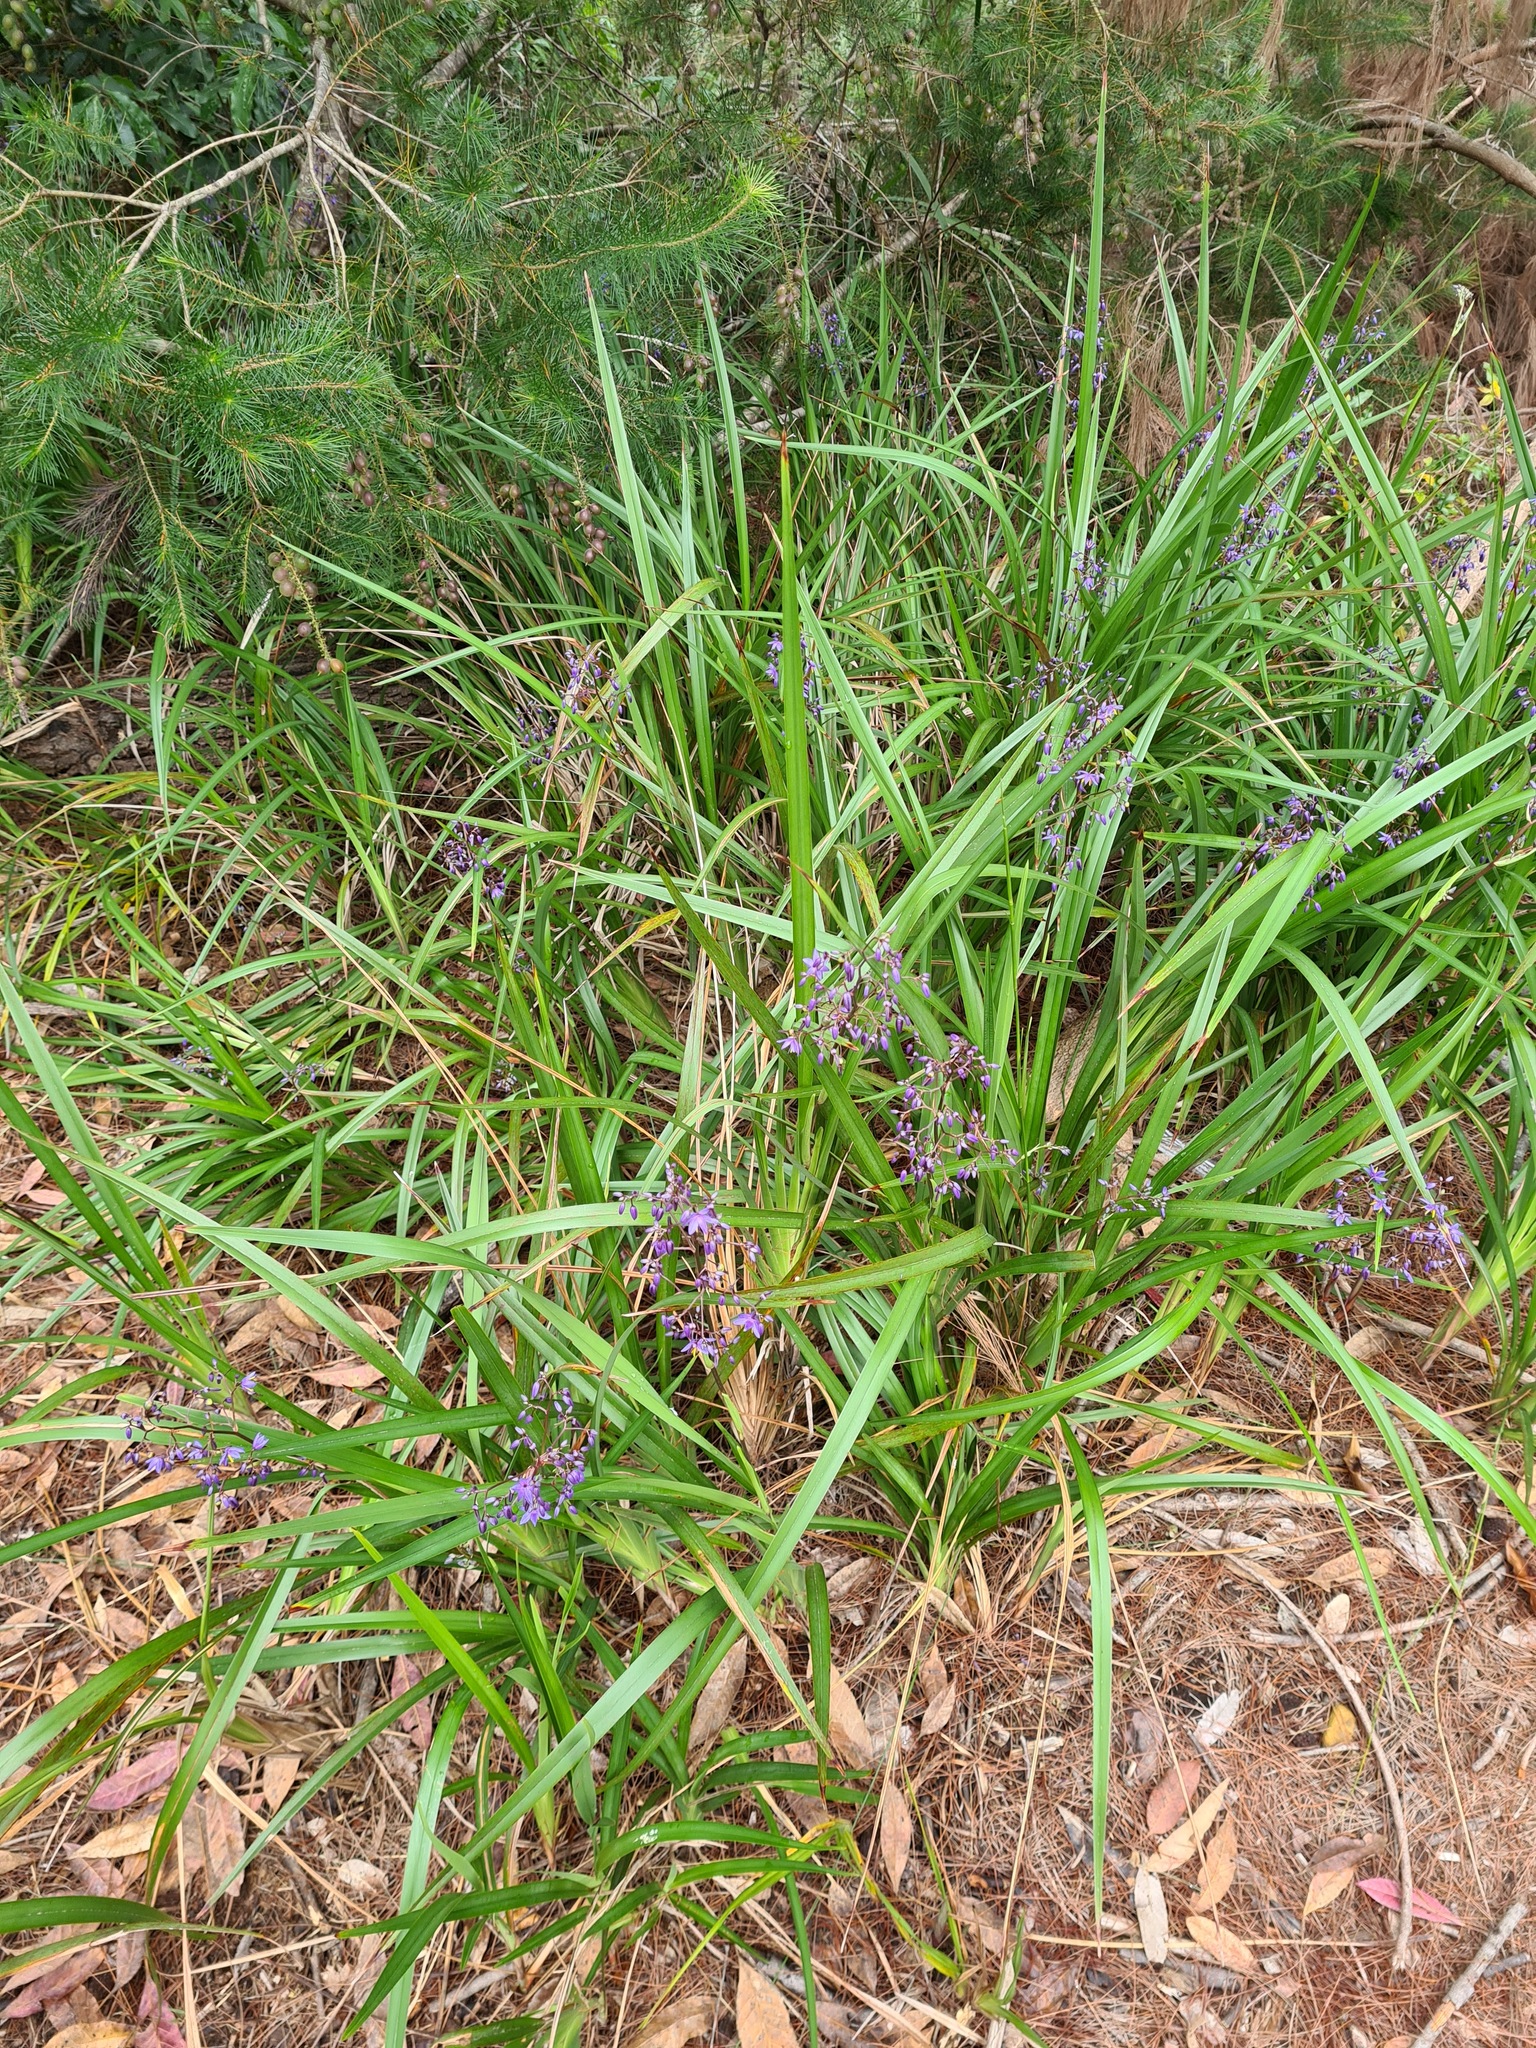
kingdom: Plantae
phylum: Tracheophyta
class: Liliopsida
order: Asparagales
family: Asphodelaceae
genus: Dianella
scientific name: Dianella caerulea
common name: Blue flax-lily
